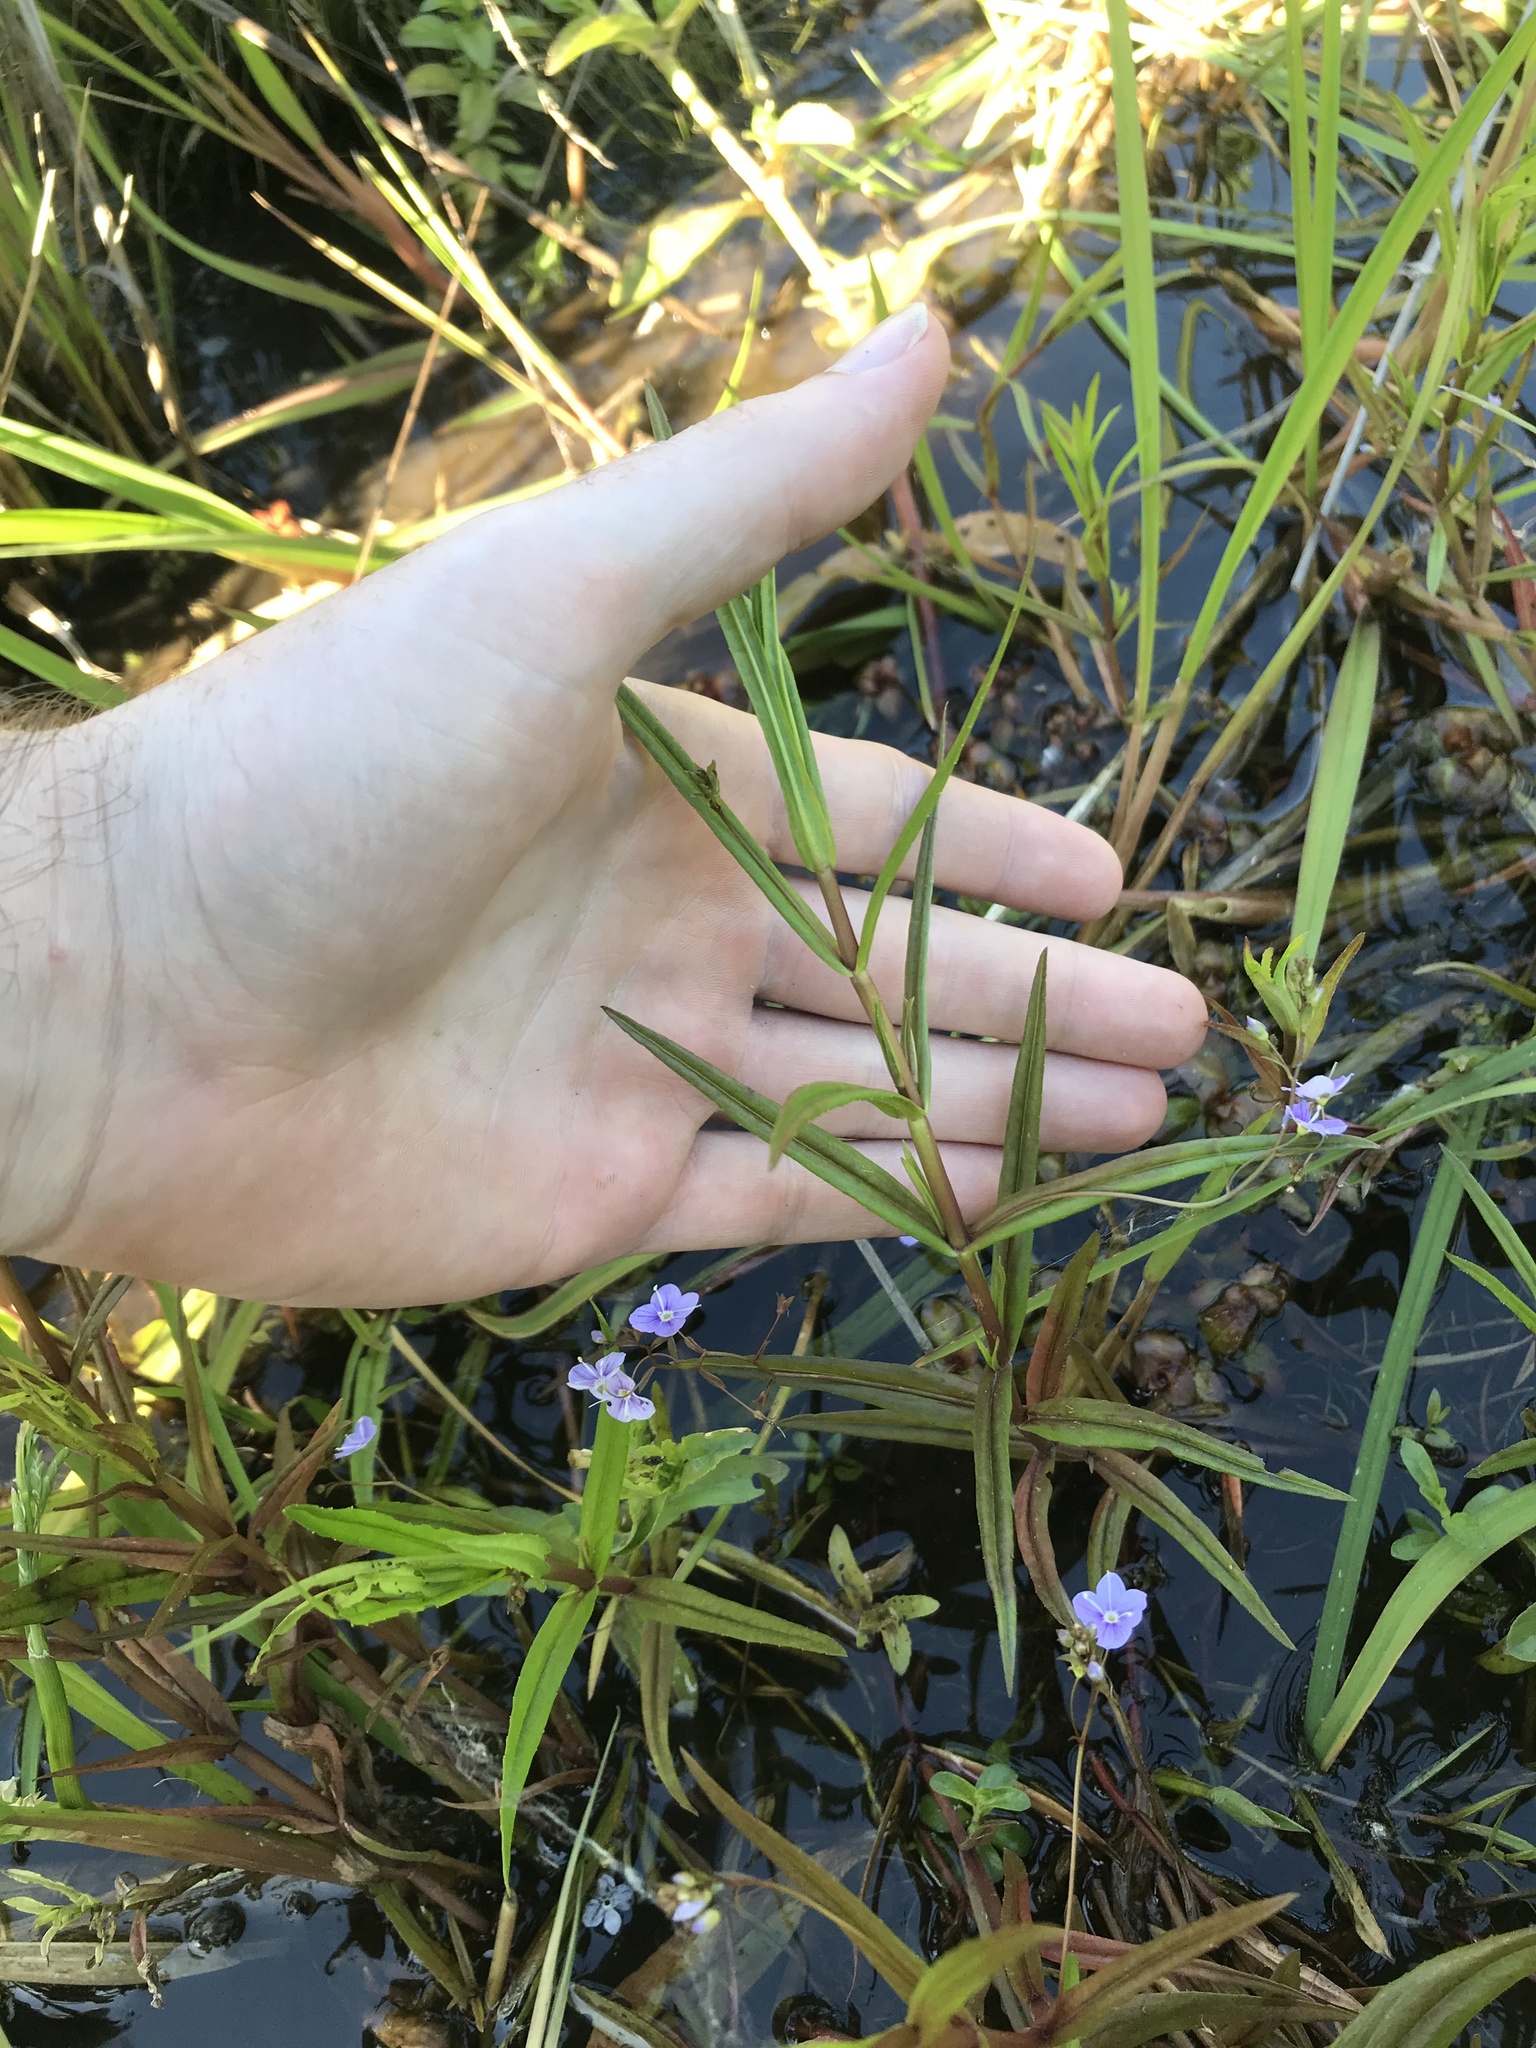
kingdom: Plantae
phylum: Tracheophyta
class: Magnoliopsida
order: Lamiales
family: Plantaginaceae
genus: Veronica
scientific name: Veronica scutellata
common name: Marsh speedwell
